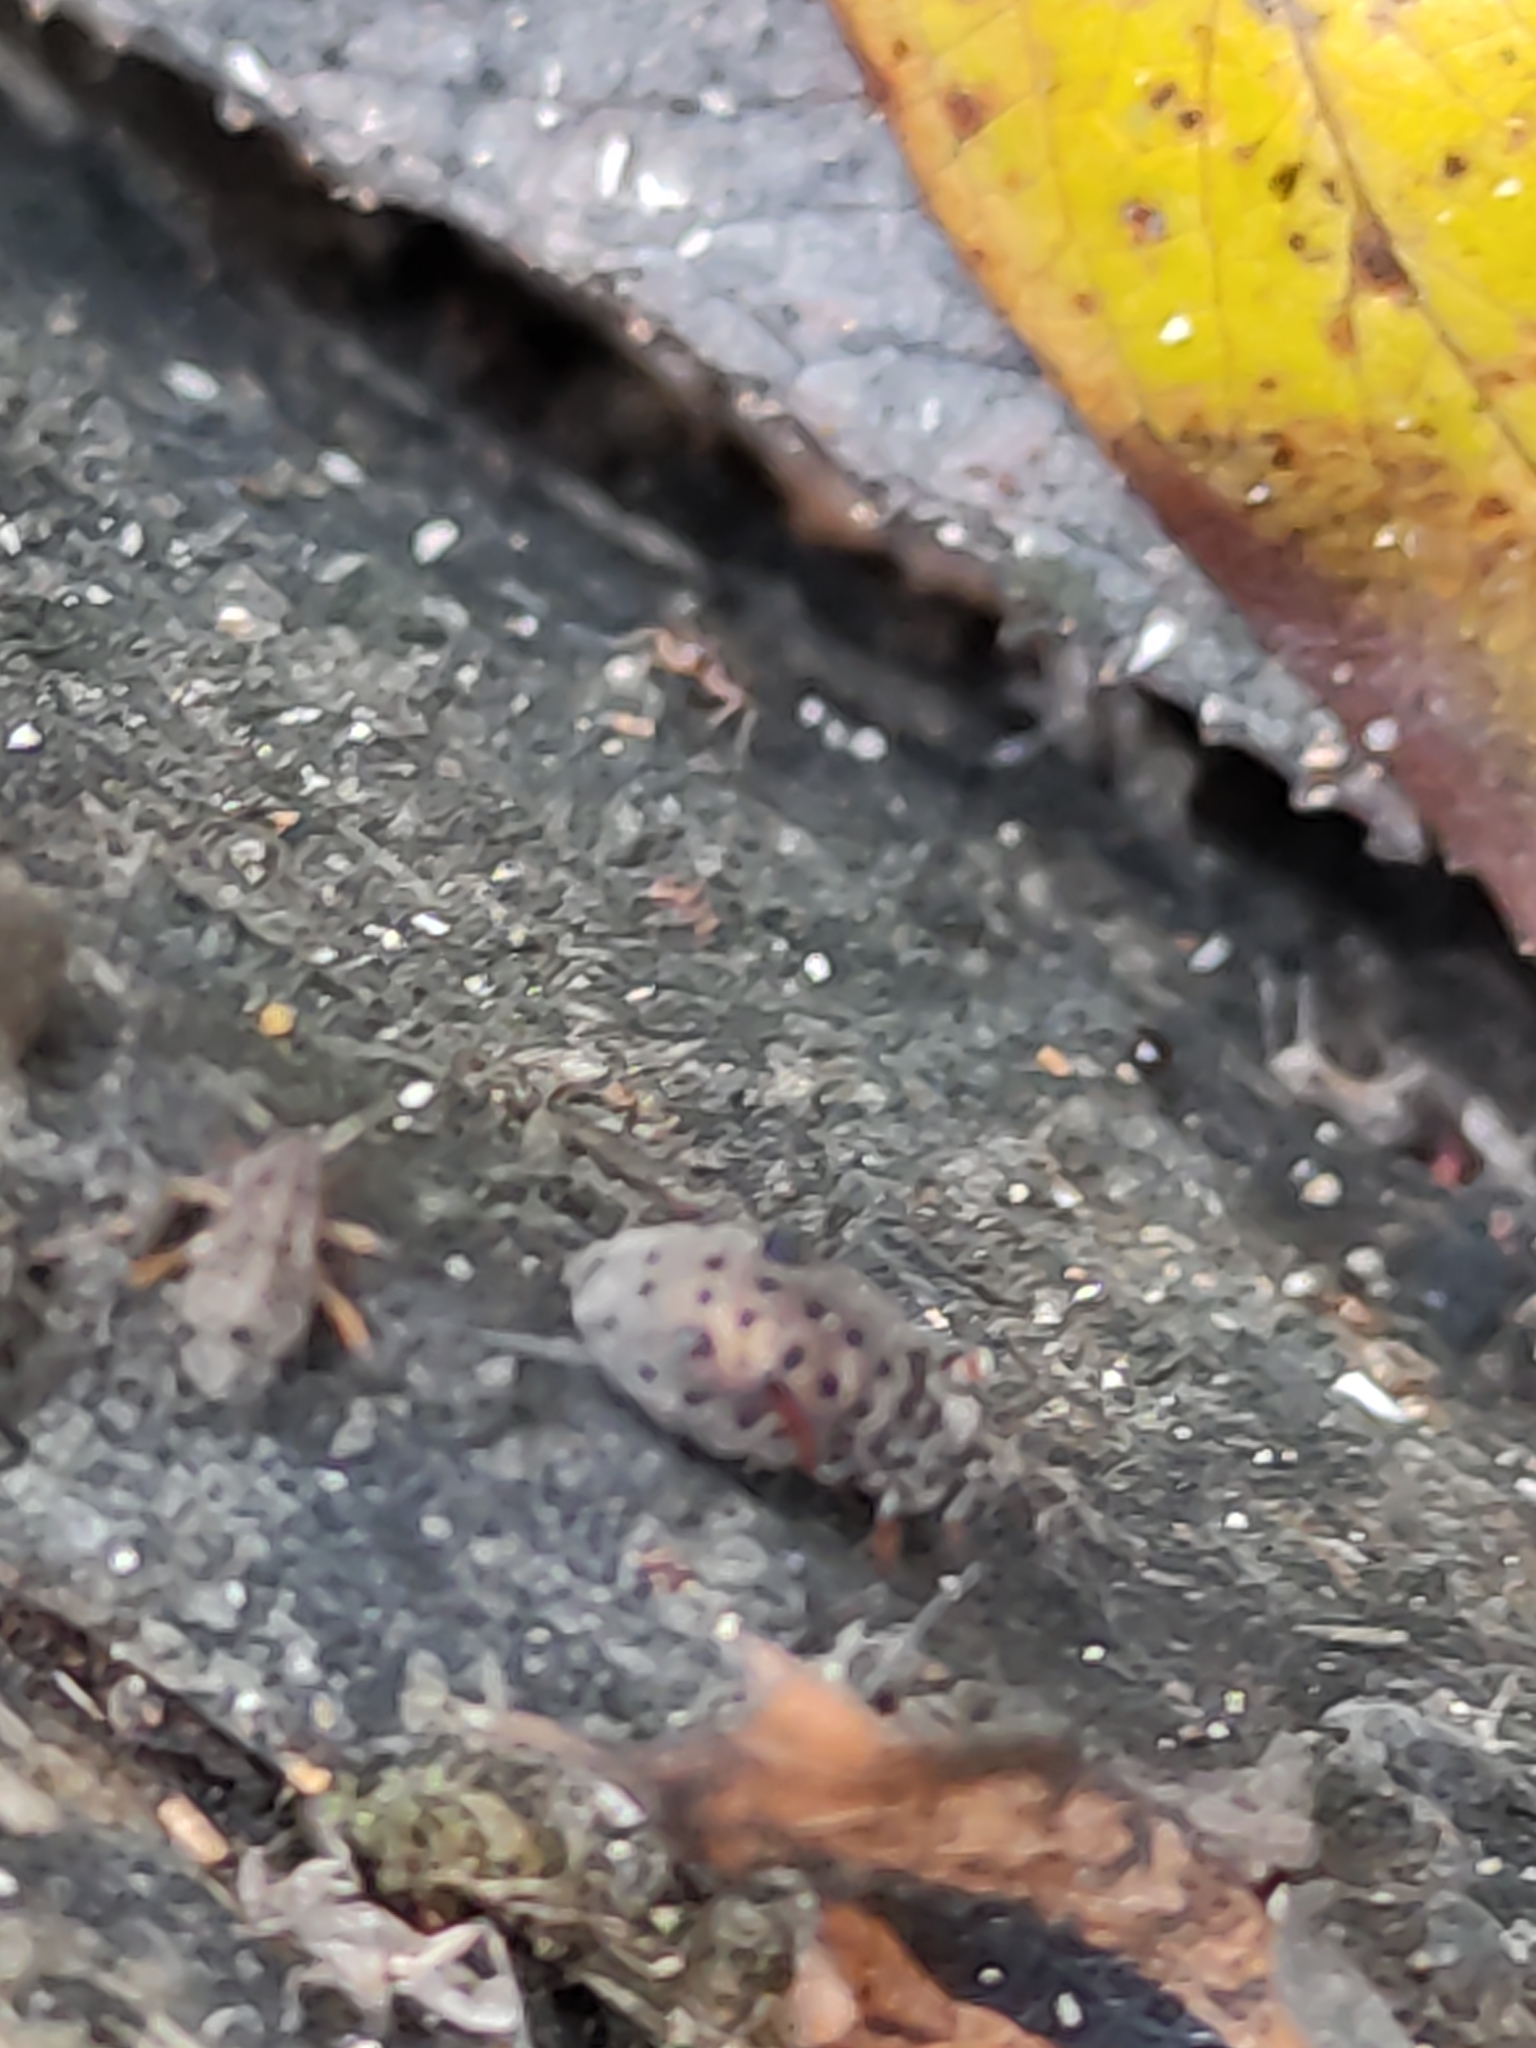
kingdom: Animalia
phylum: Arthropoda
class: Insecta
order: Hemiptera
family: Aphididae
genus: Tuberolachnus
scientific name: Tuberolachnus salignus
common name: Giant willow aphid
